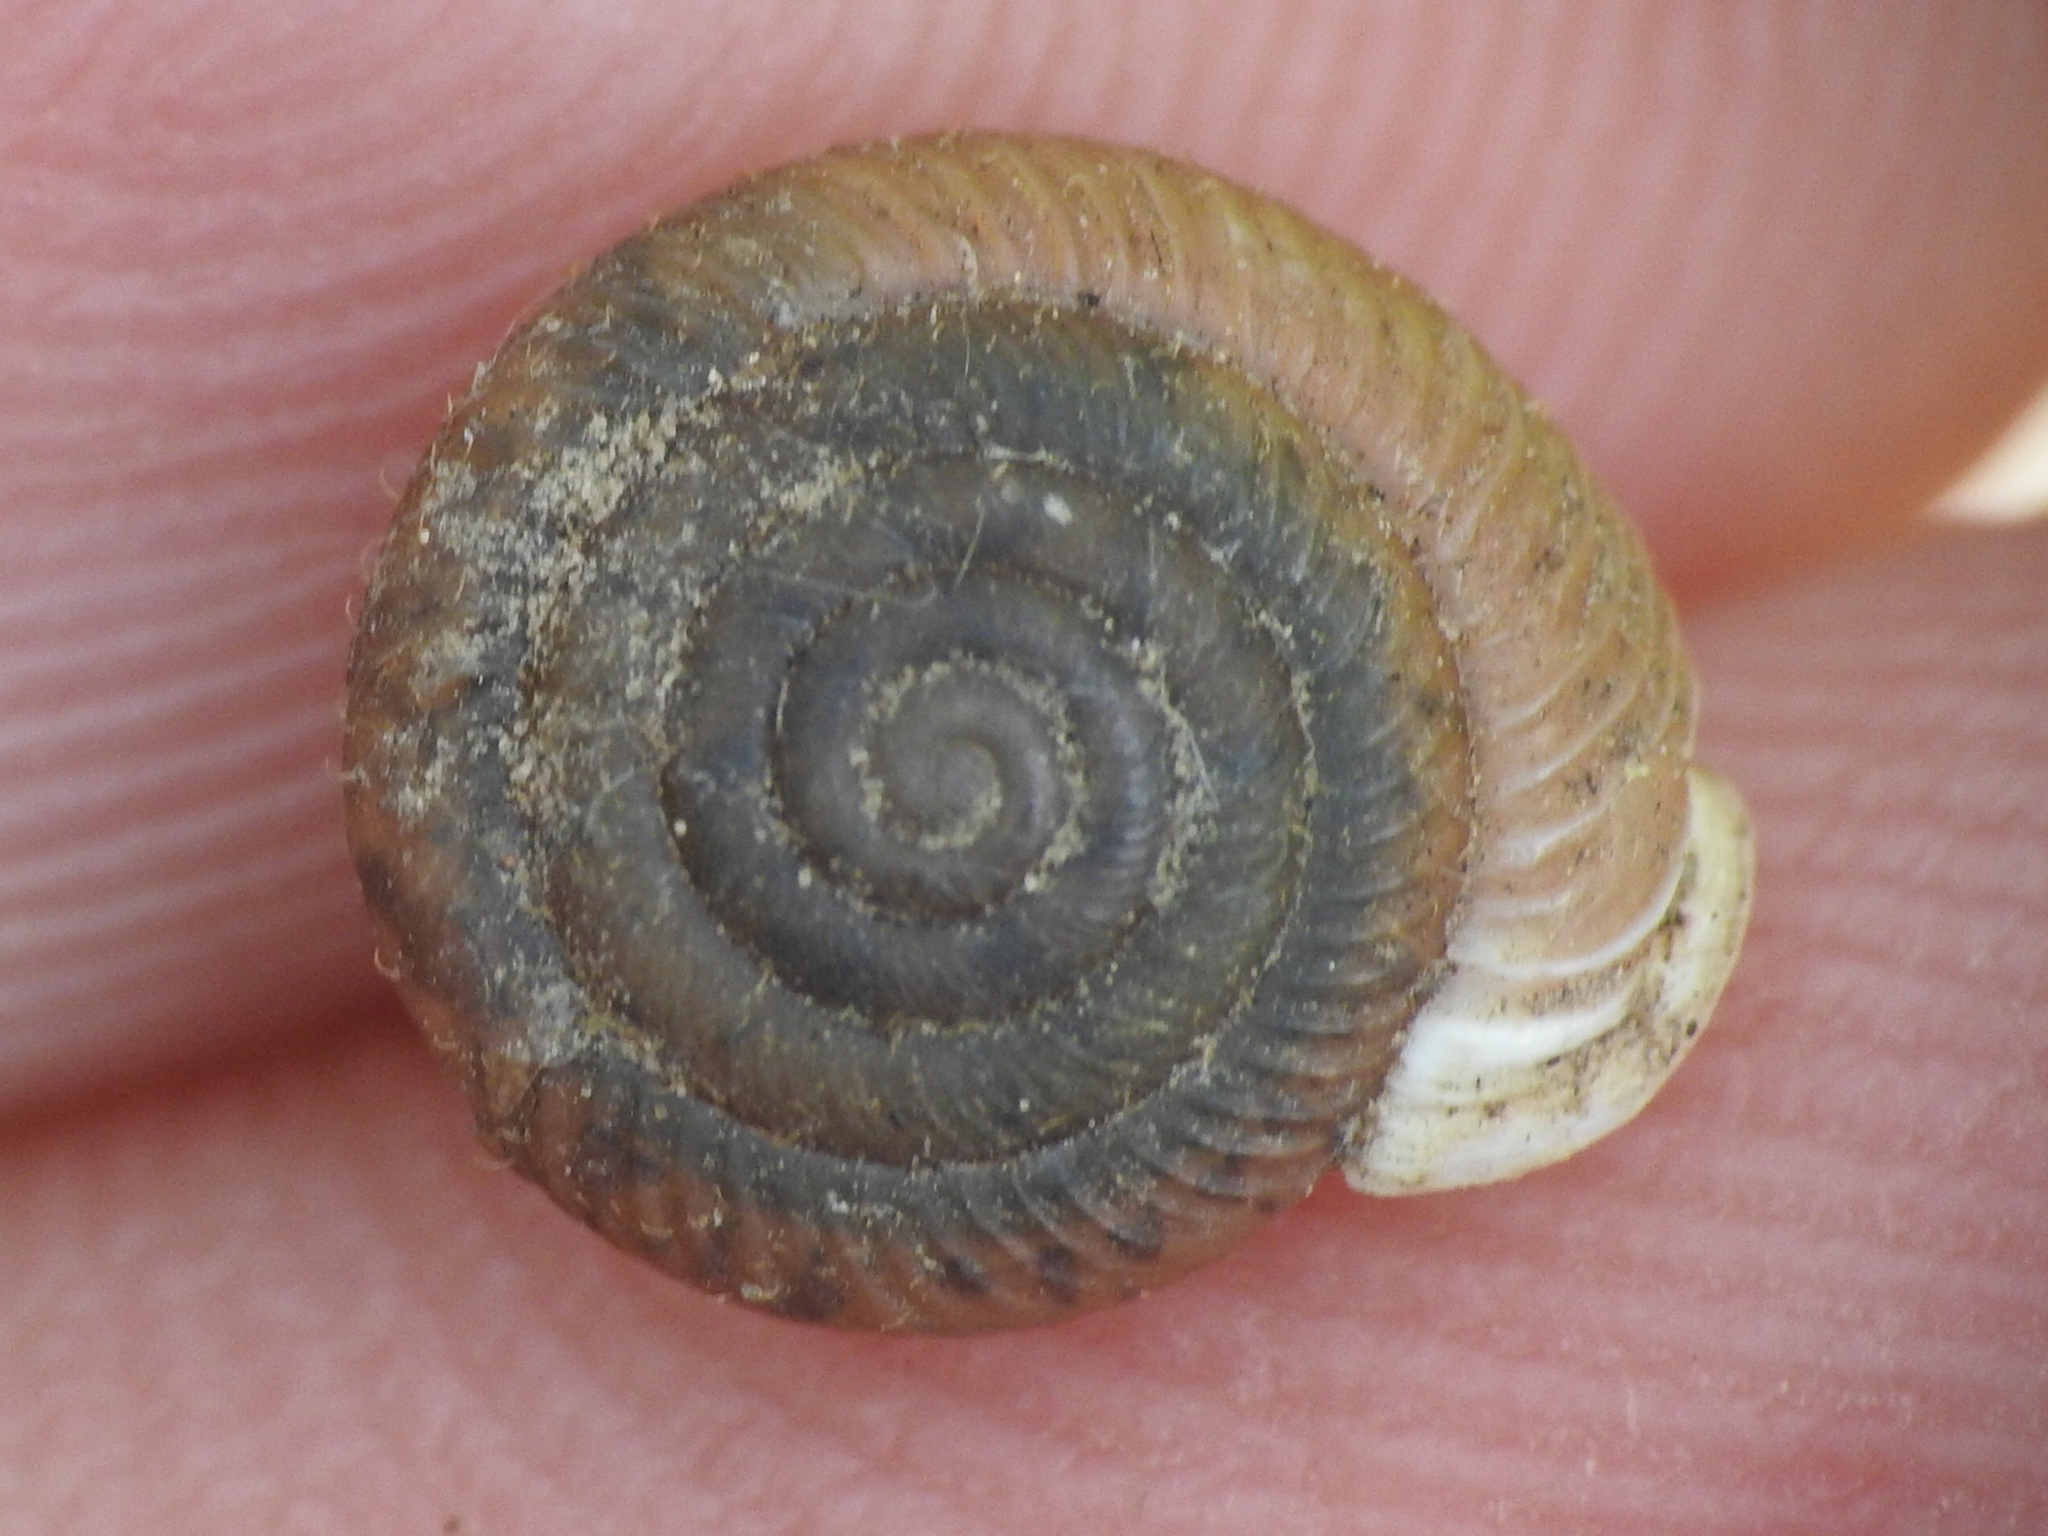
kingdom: Animalia
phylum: Mollusca
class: Gastropoda
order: Stylommatophora
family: Polygyridae
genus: Linisa
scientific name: Linisa texasiana
